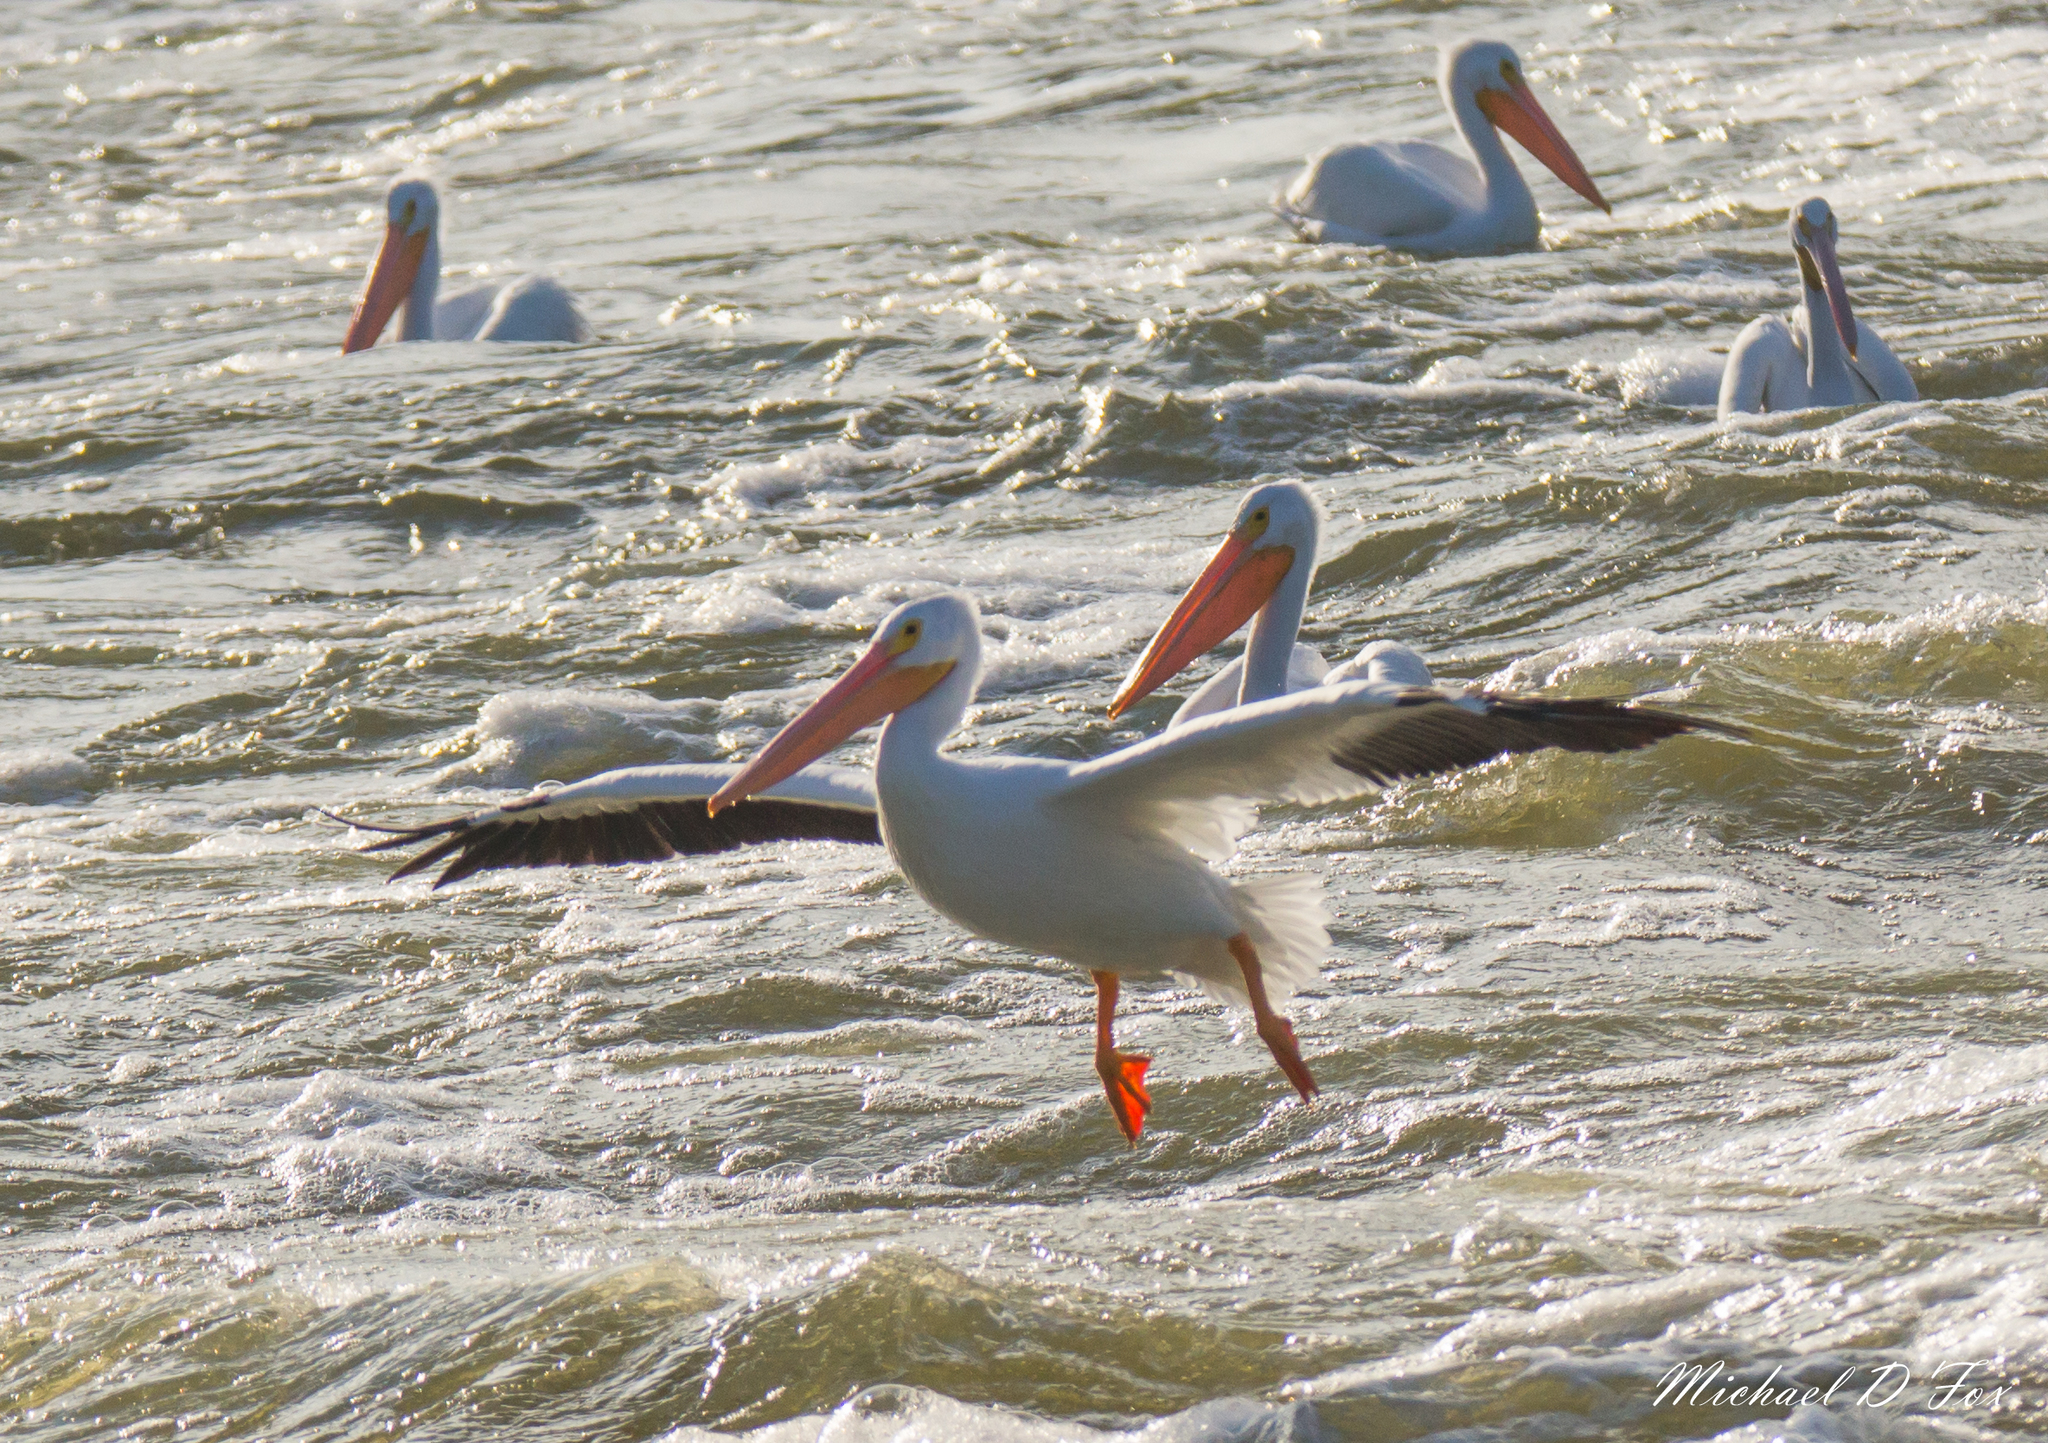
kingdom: Animalia
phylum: Chordata
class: Aves
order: Pelecaniformes
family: Pelecanidae
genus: Pelecanus
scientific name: Pelecanus erythrorhynchos
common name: American white pelican
